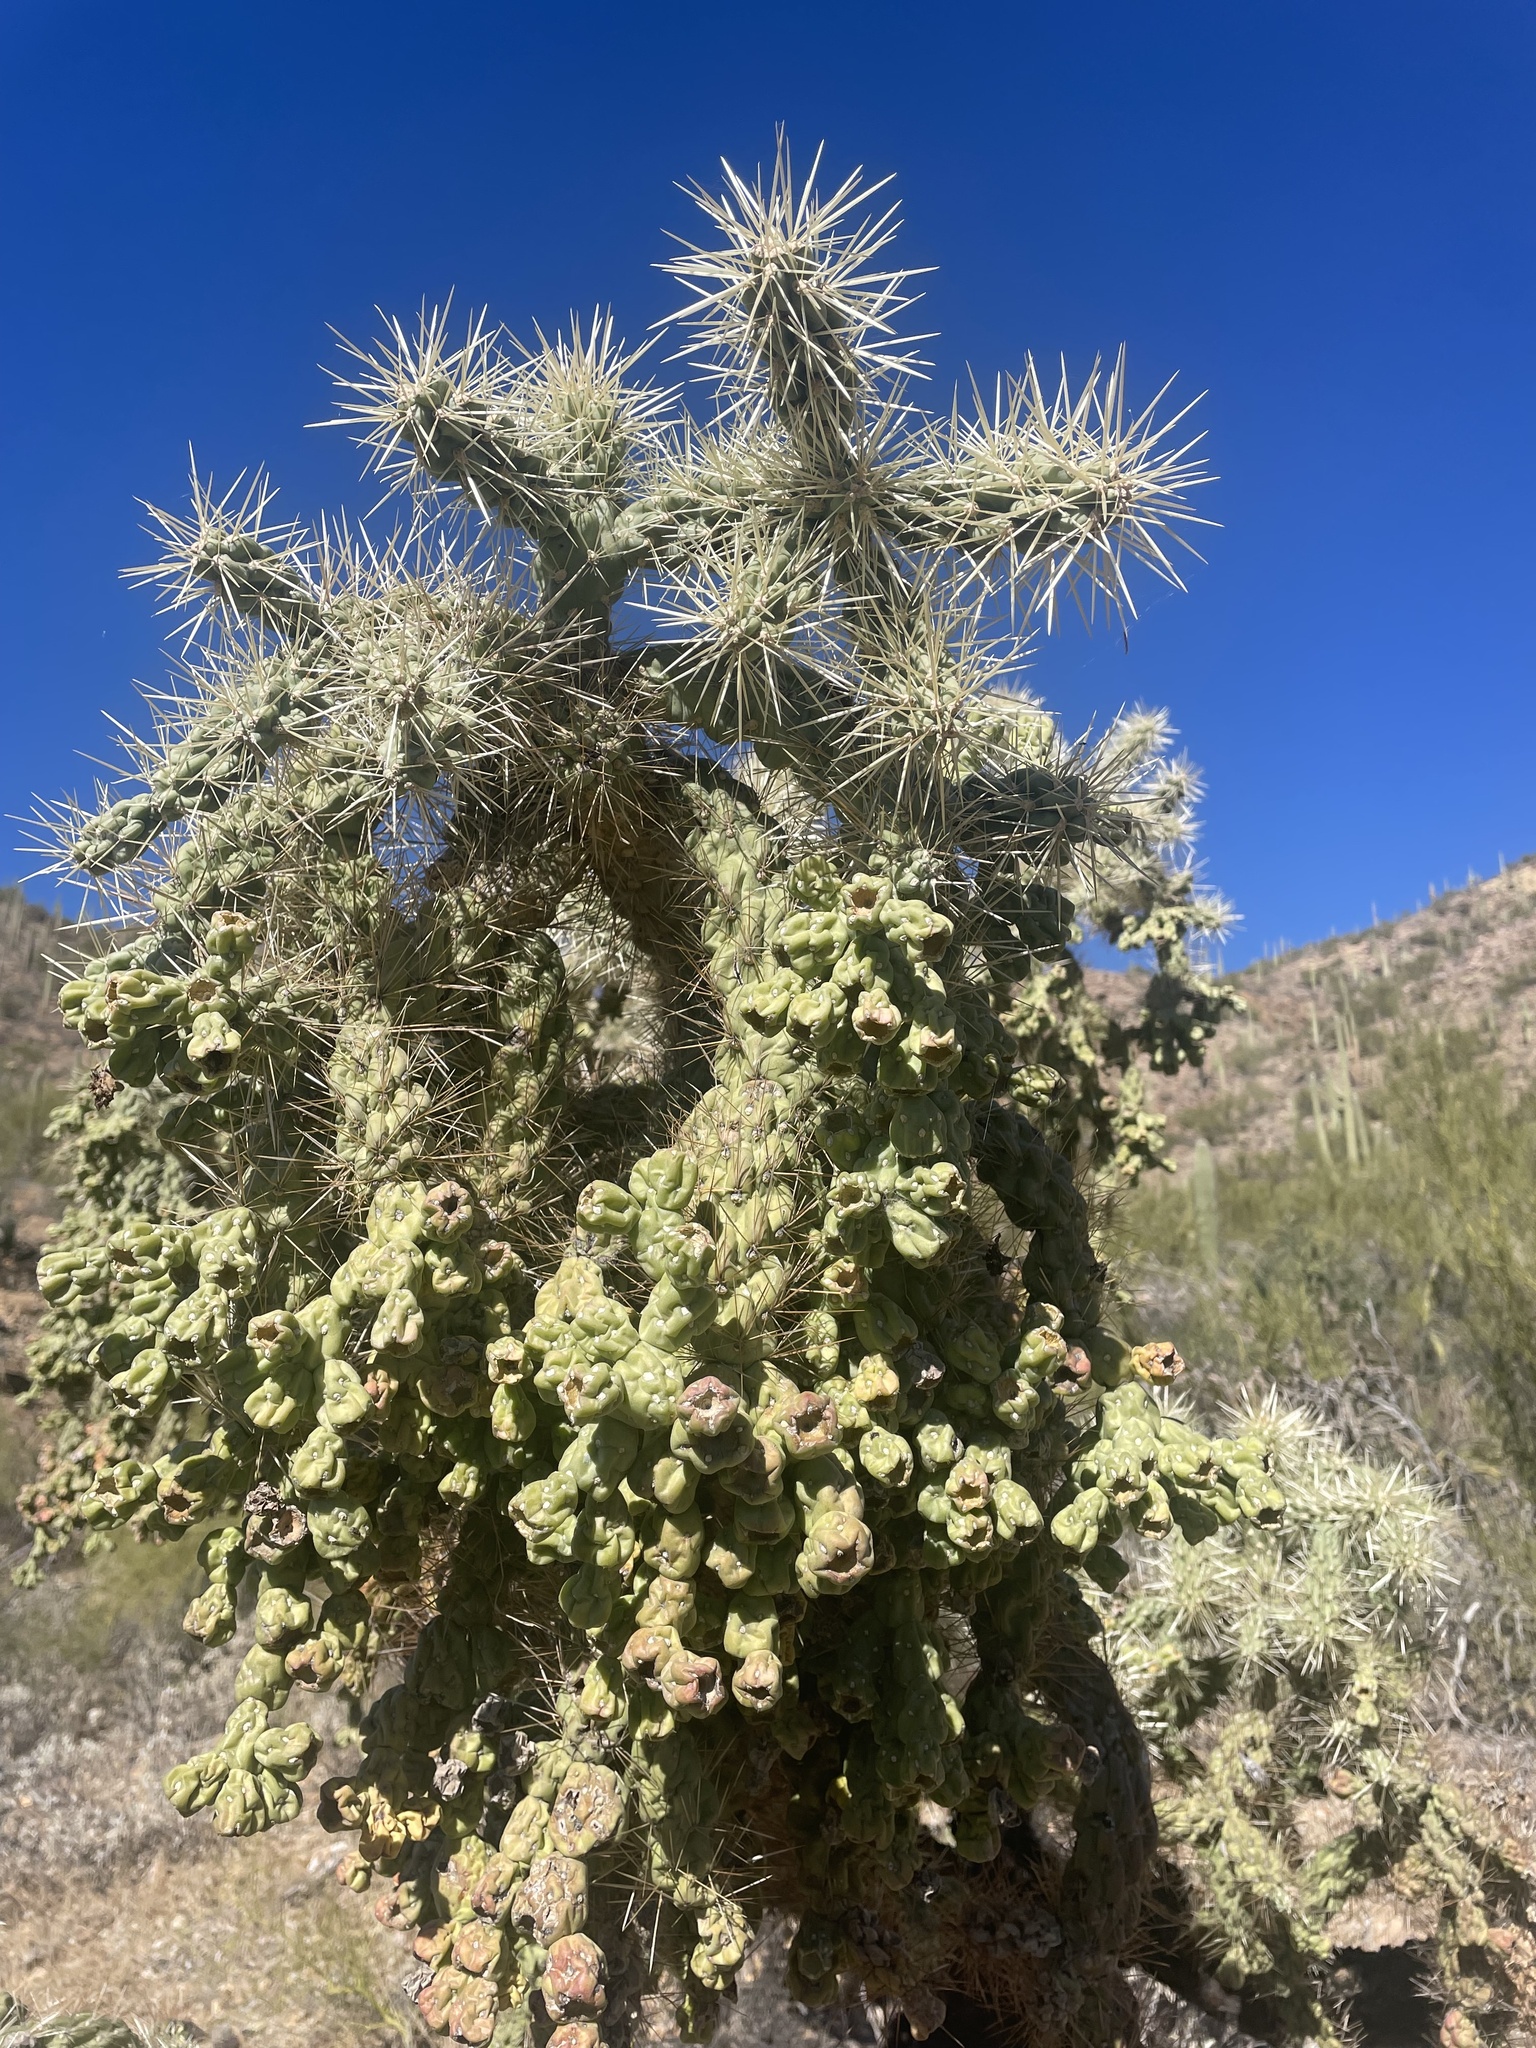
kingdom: Plantae
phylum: Tracheophyta
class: Magnoliopsida
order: Caryophyllales
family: Cactaceae
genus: Cylindropuntia
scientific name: Cylindropuntia fulgida
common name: Jumping cholla
